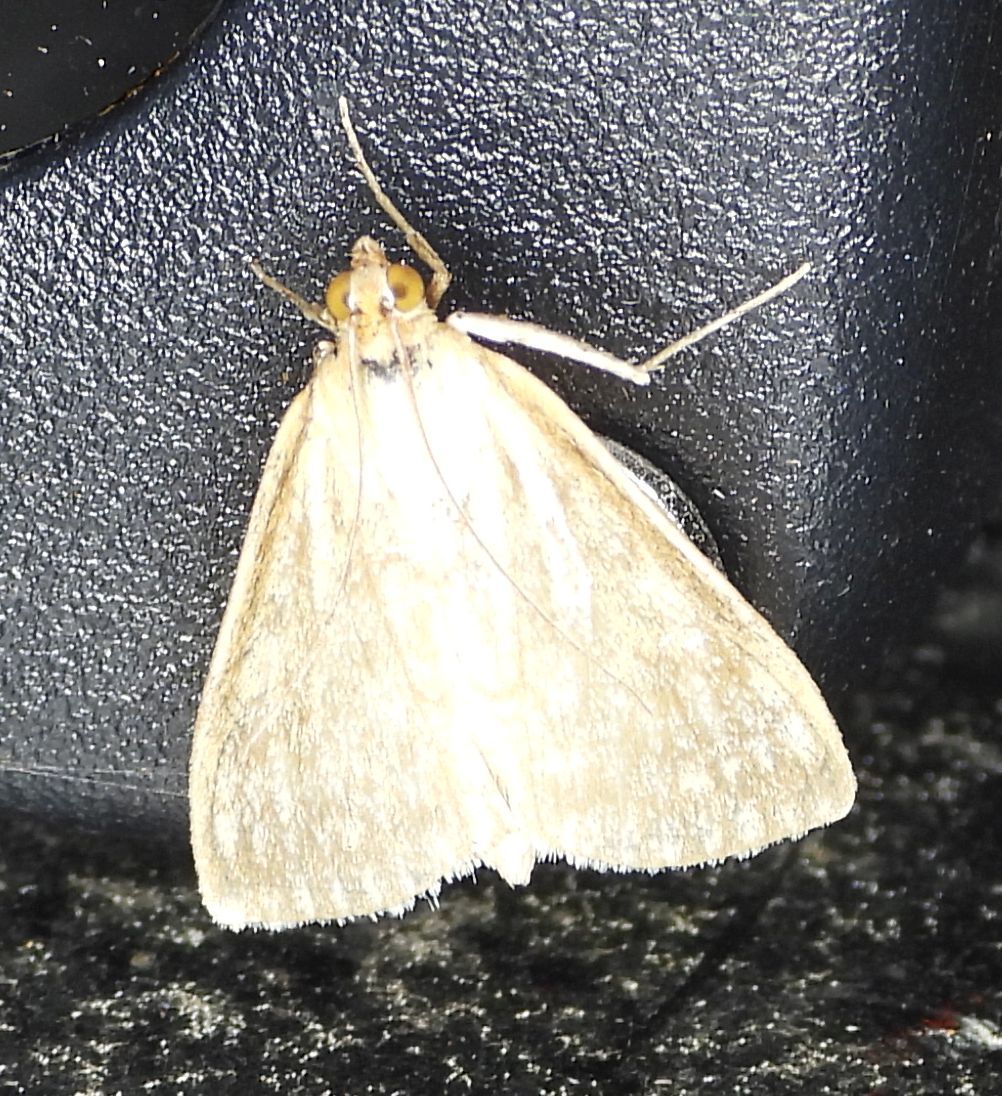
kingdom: Animalia
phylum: Arthropoda
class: Insecta
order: Lepidoptera
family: Crambidae
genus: Sitochroa
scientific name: Sitochroa chortalis
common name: Dimorphic sitochroa moth
